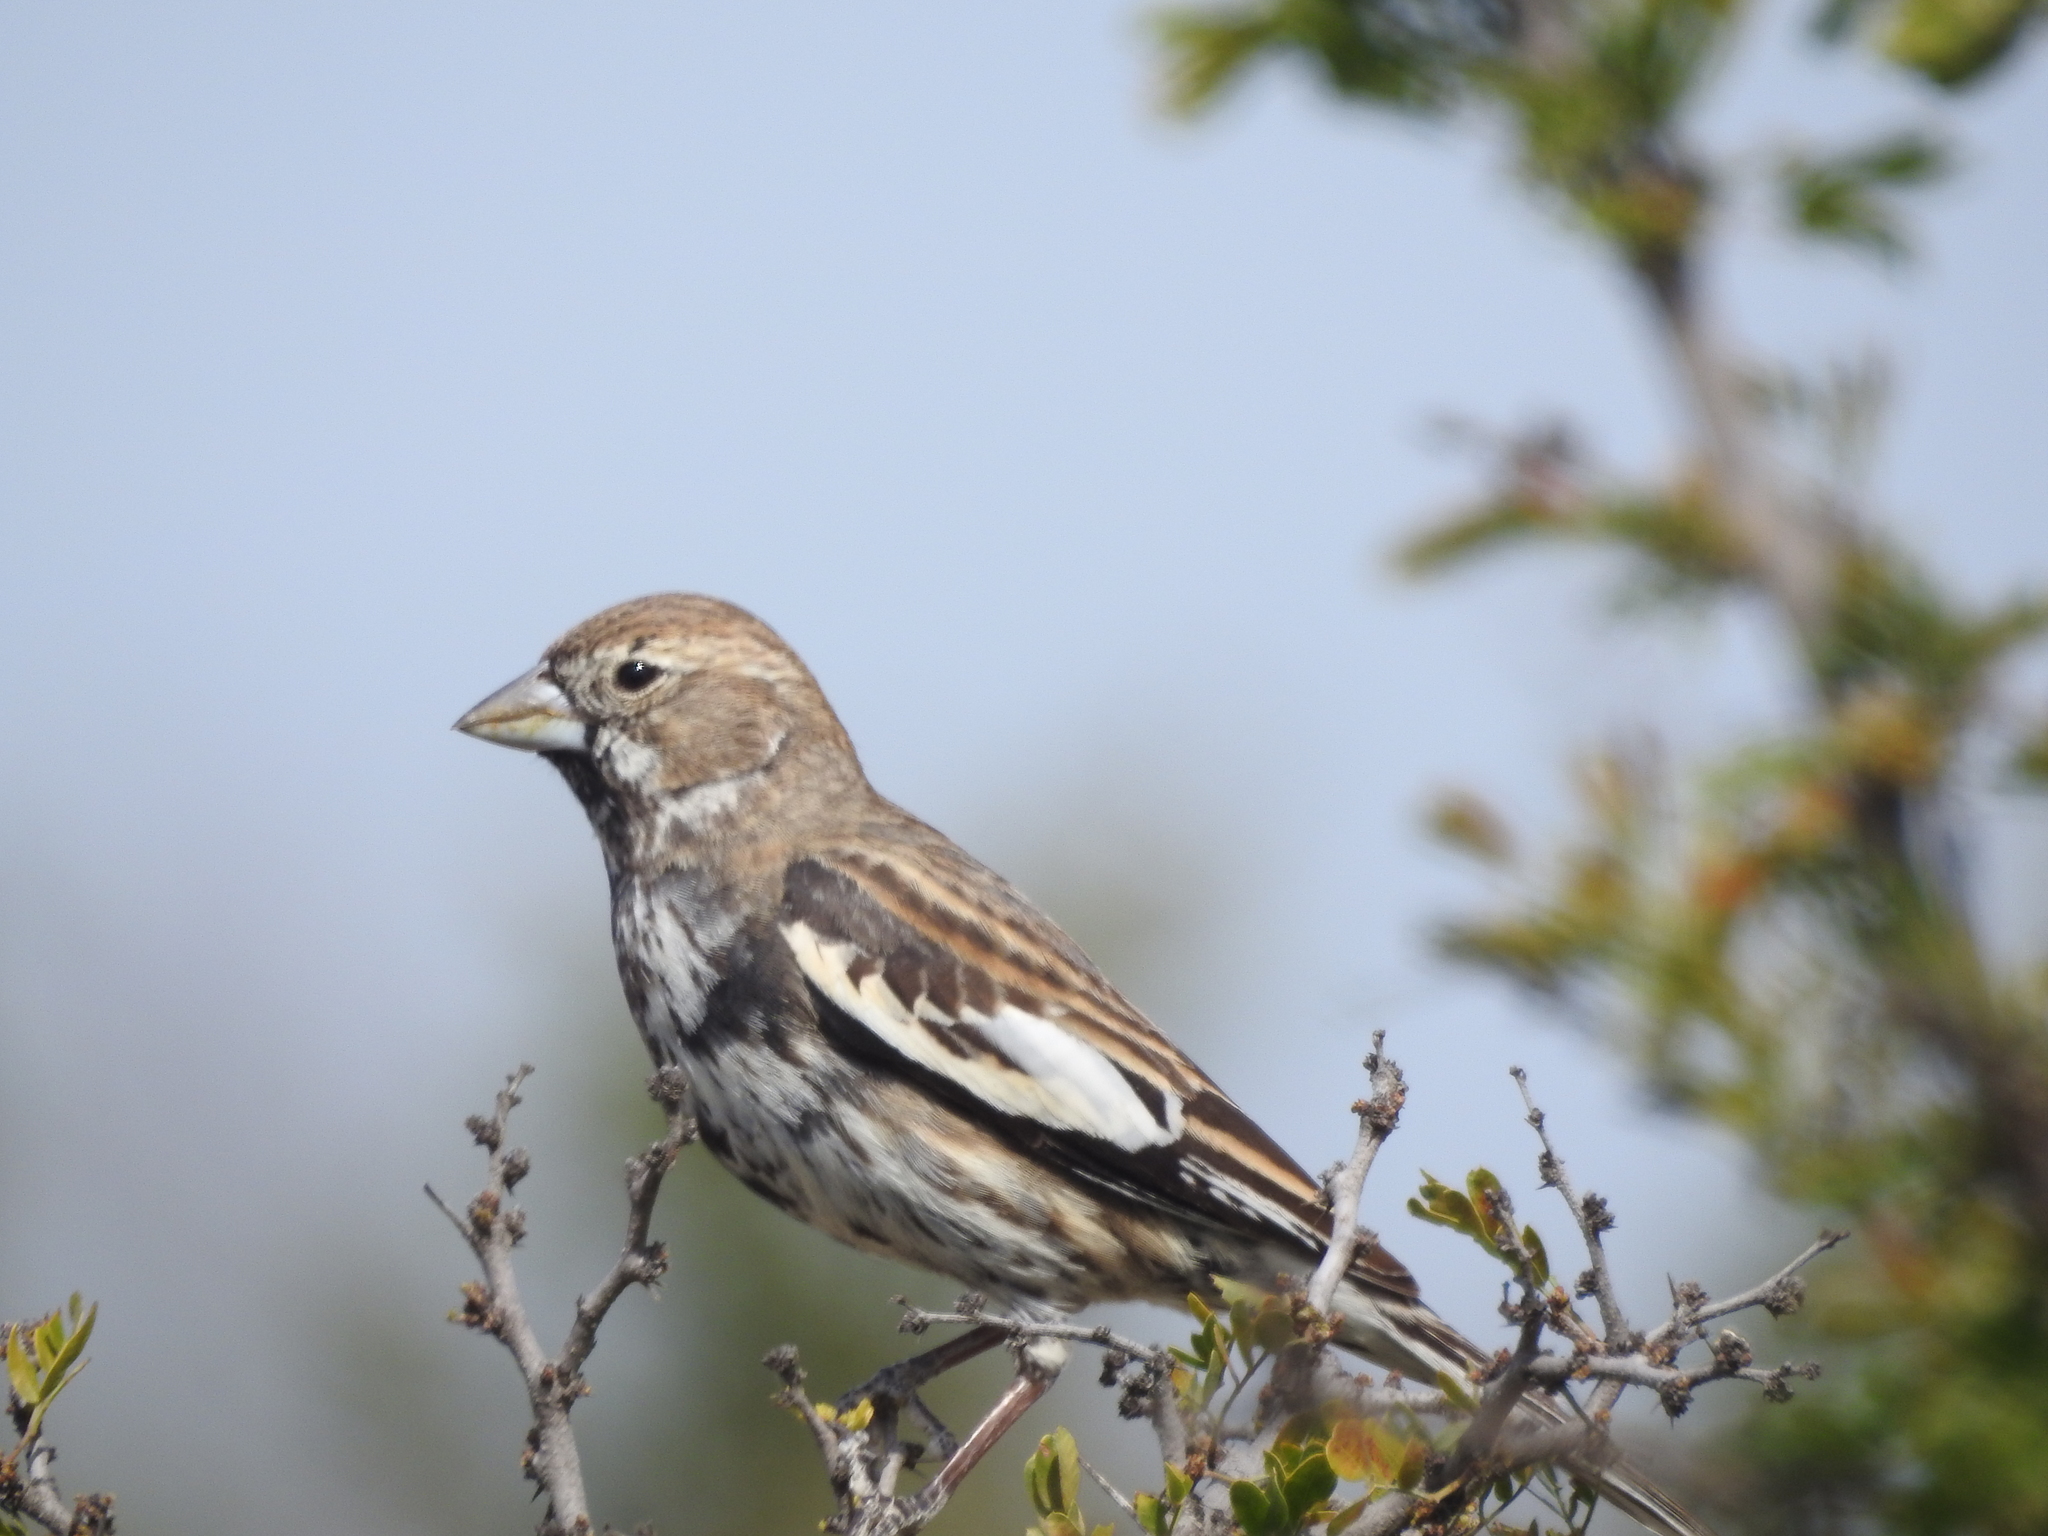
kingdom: Animalia
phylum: Chordata
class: Aves
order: Passeriformes
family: Passerellidae
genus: Calamospiza
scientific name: Calamospiza melanocorys
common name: Lark bunting
